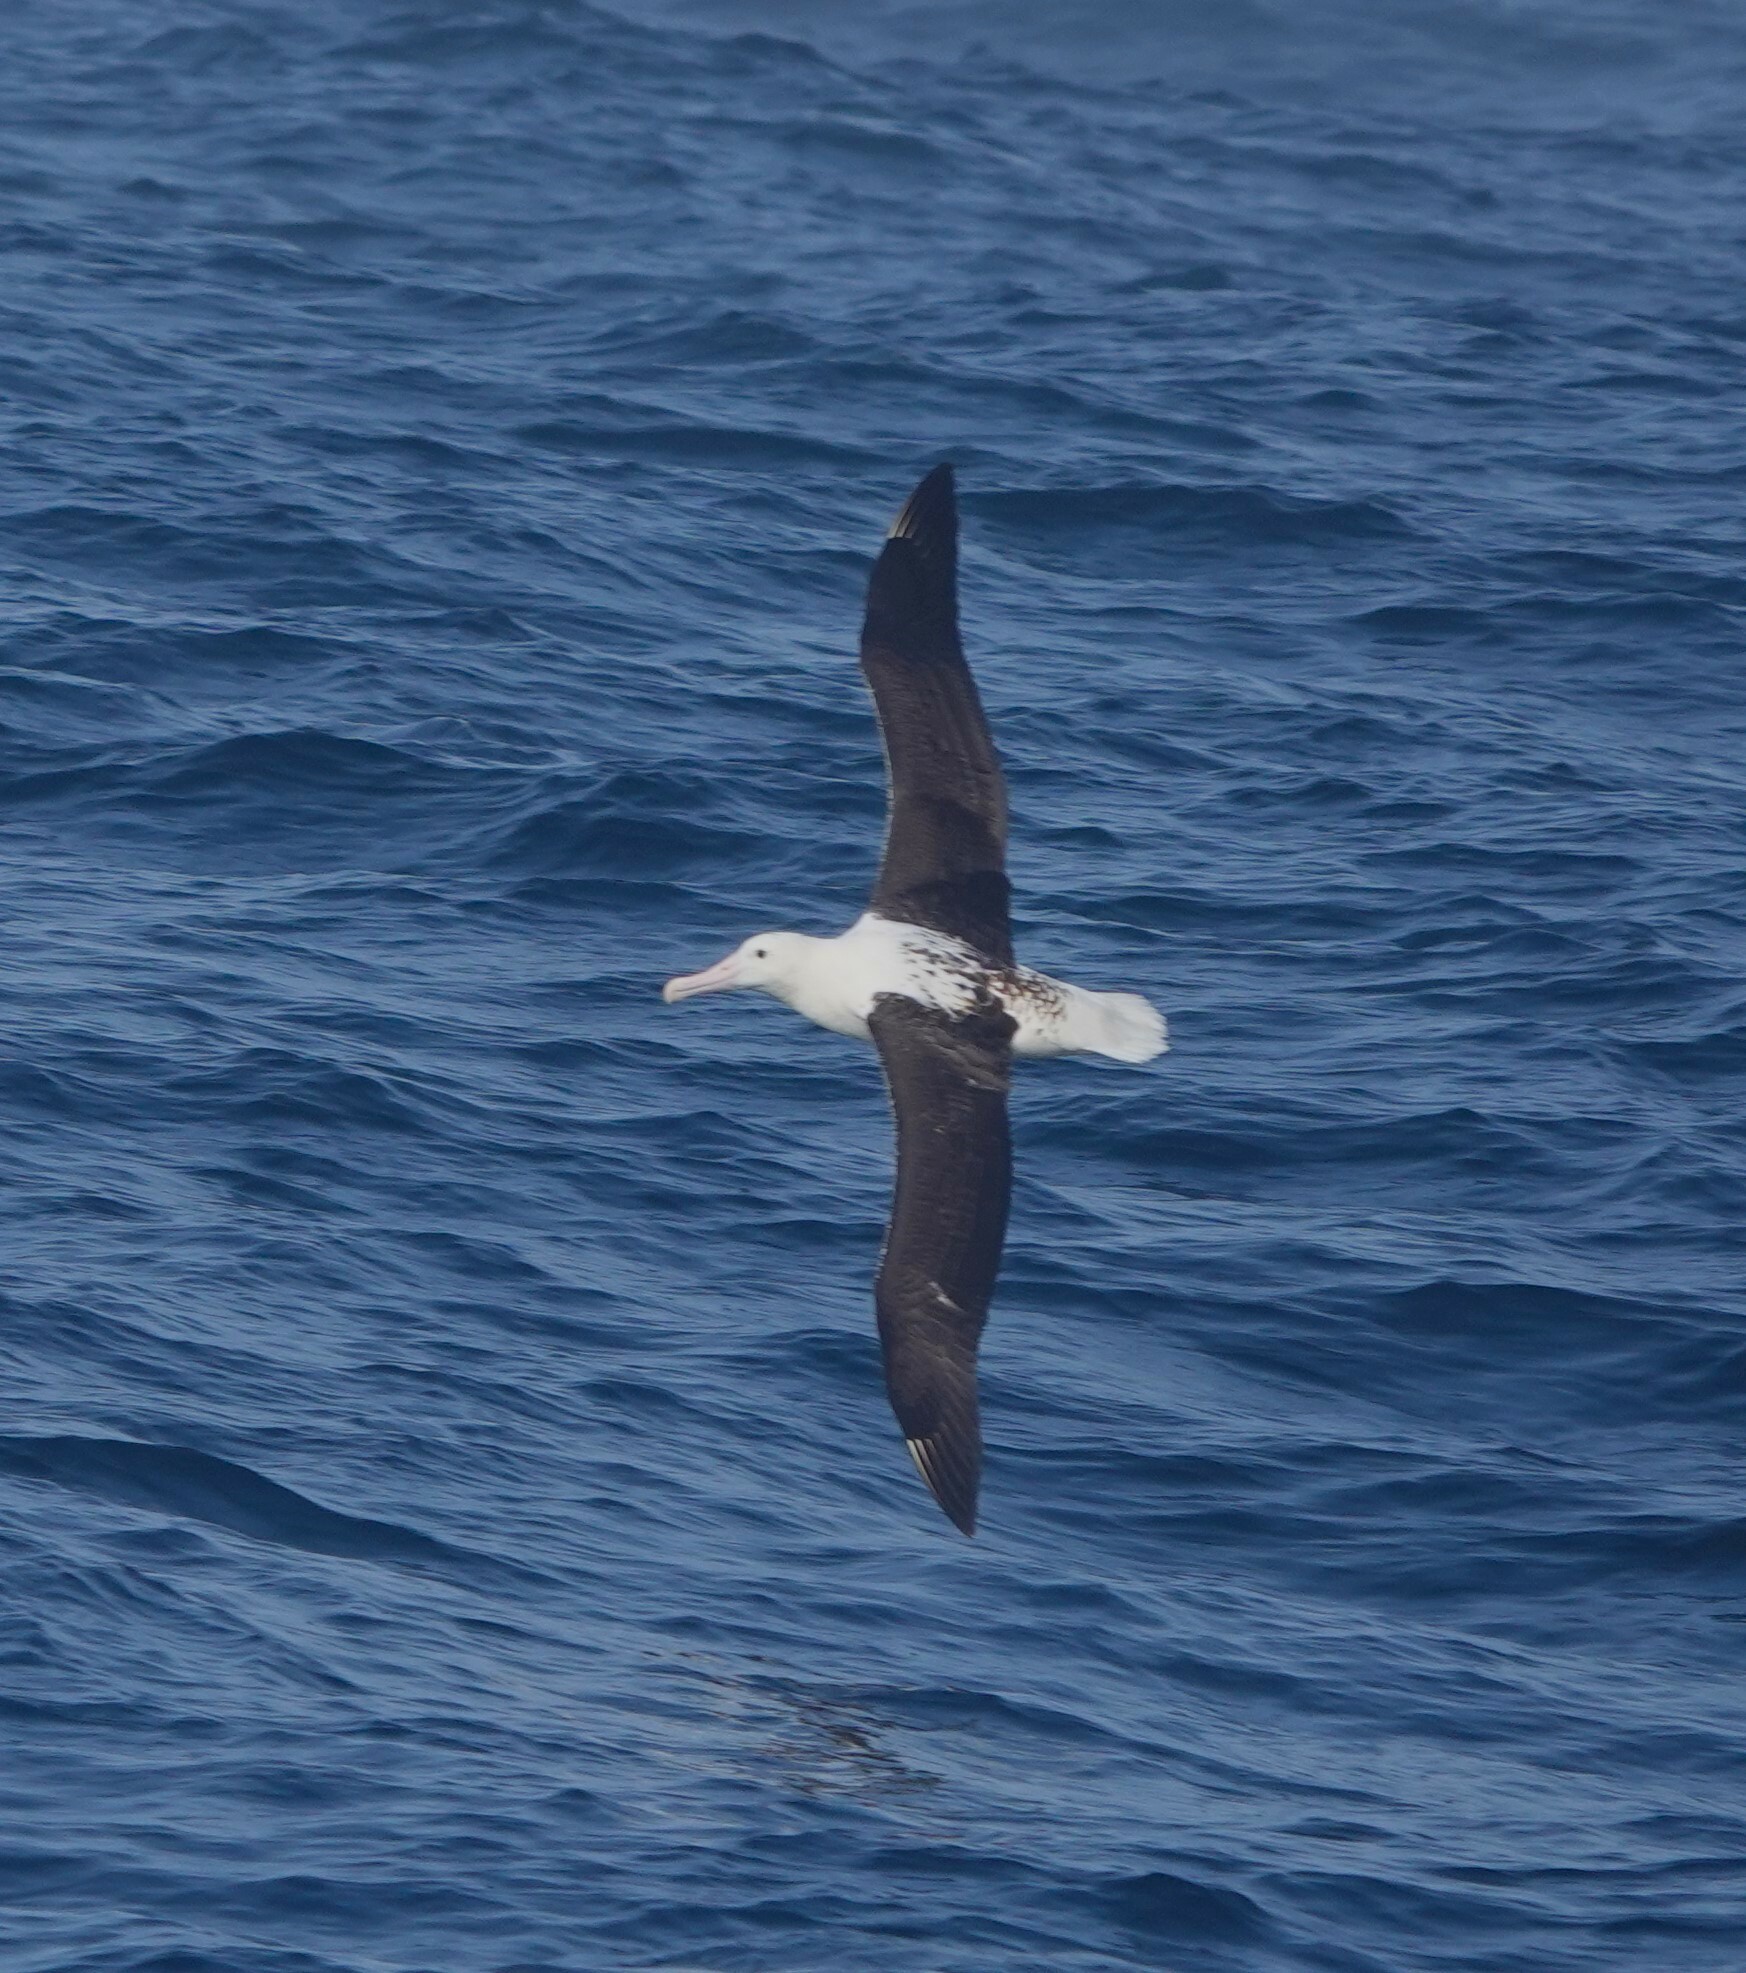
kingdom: Animalia
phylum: Chordata
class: Aves
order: Procellariiformes
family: Diomedeidae
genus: Diomedea
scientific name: Diomedea sanfordi
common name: Northern royal albatross
